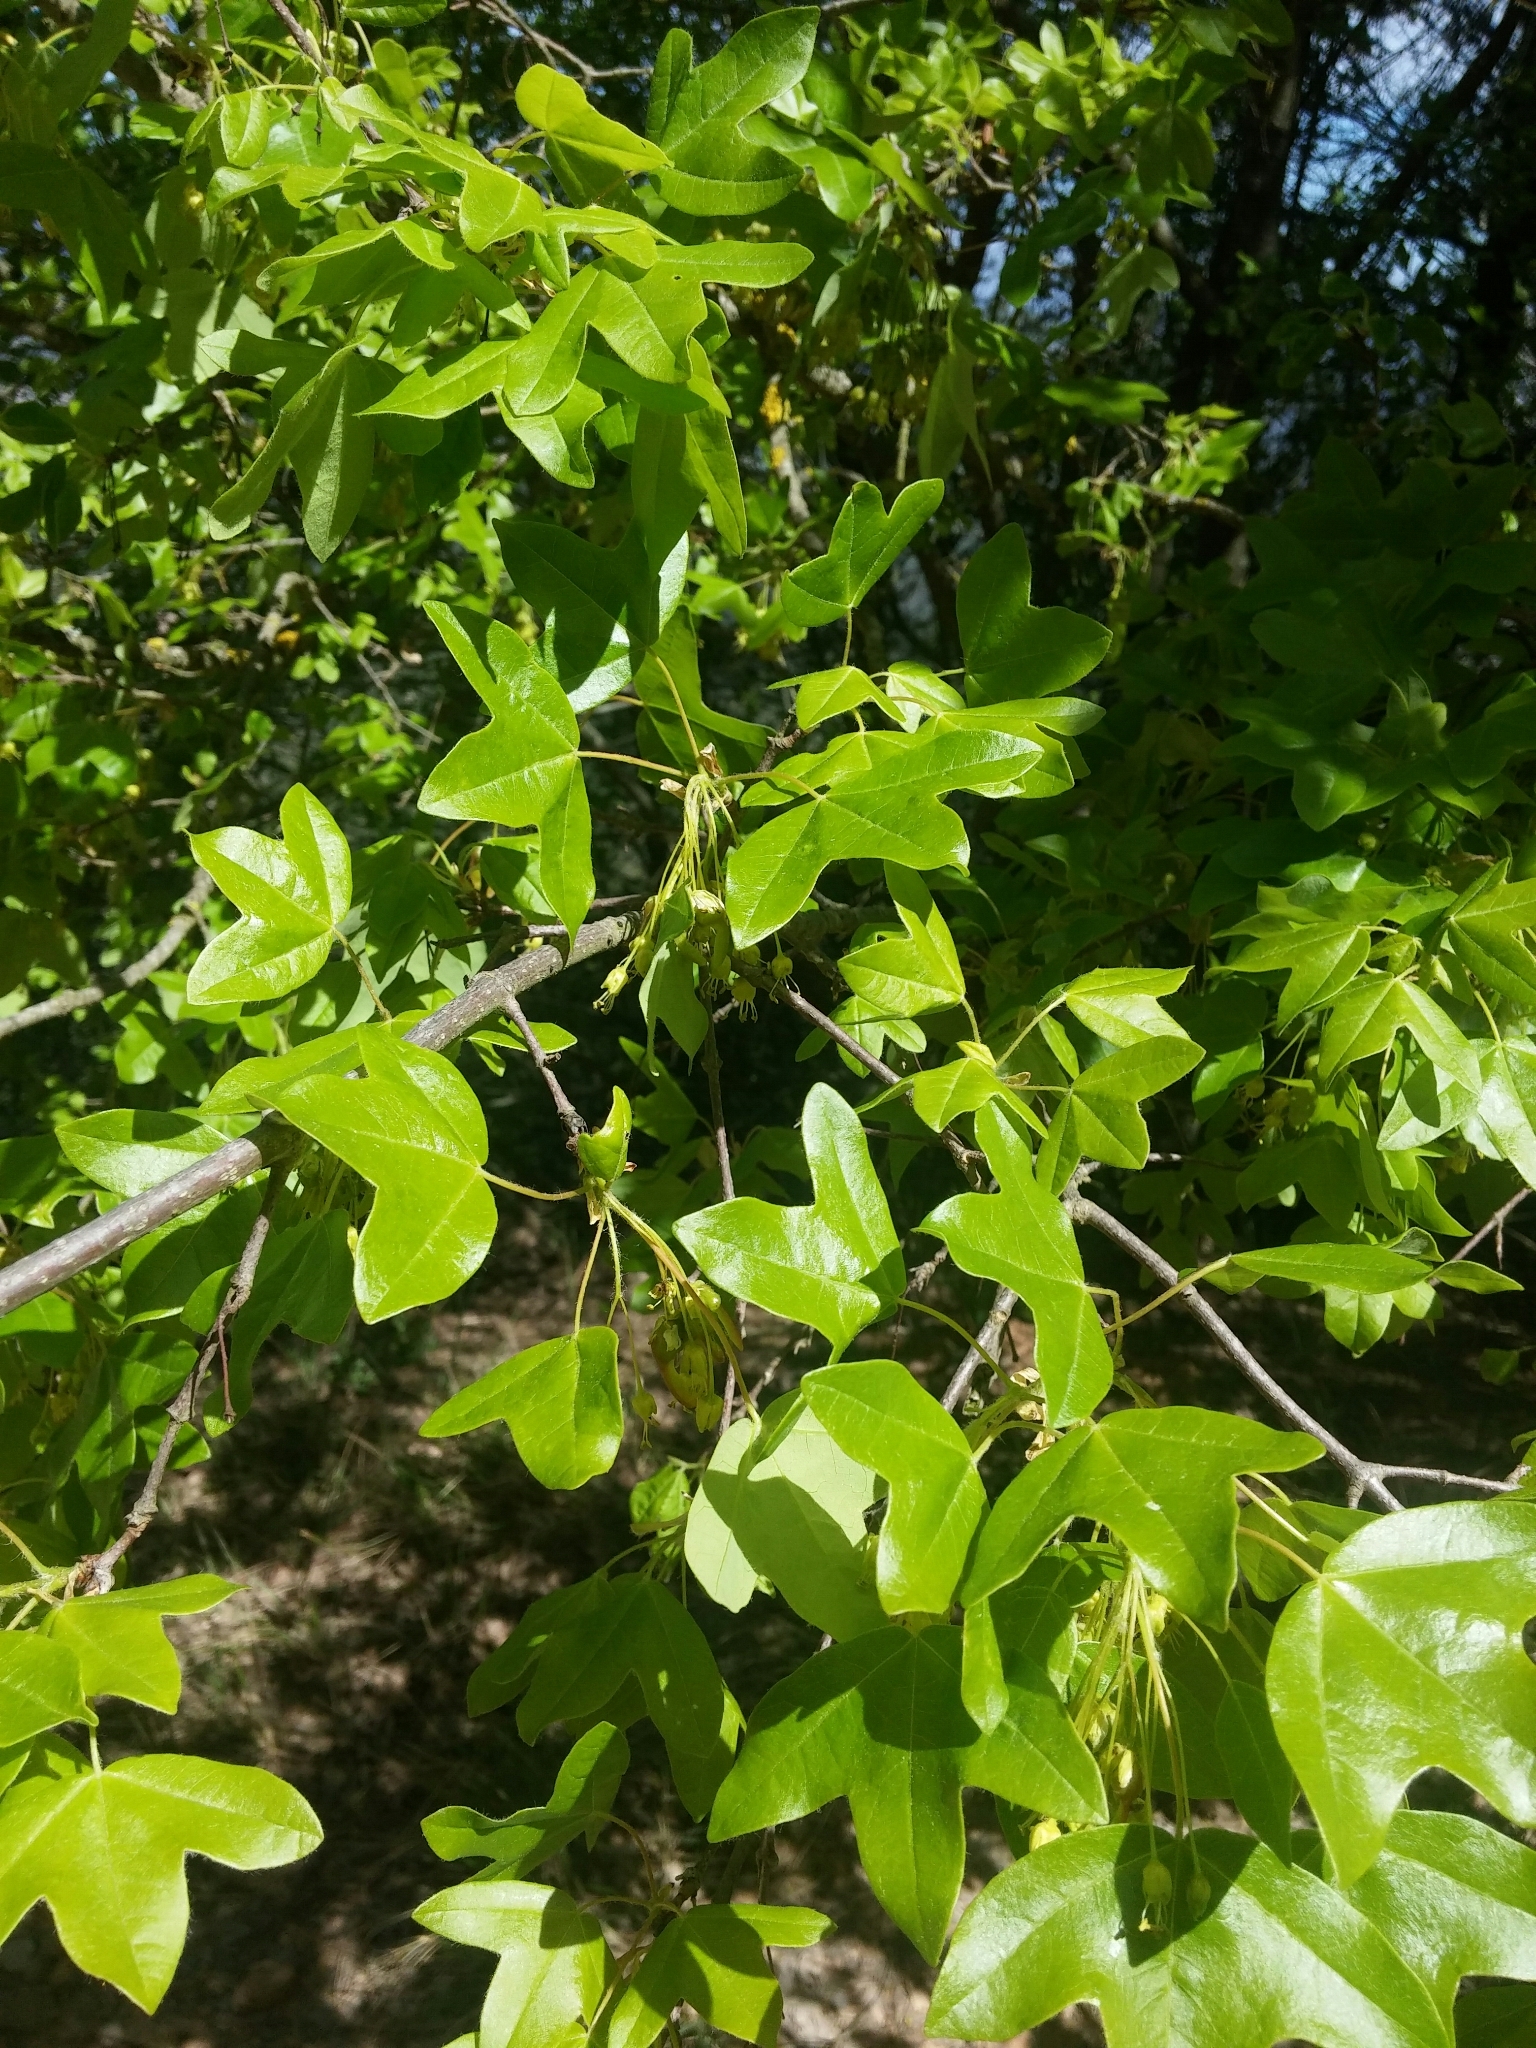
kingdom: Plantae
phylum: Tracheophyta
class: Magnoliopsida
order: Sapindales
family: Sapindaceae
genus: Acer
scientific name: Acer monspessulanum
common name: Montpellier maple
